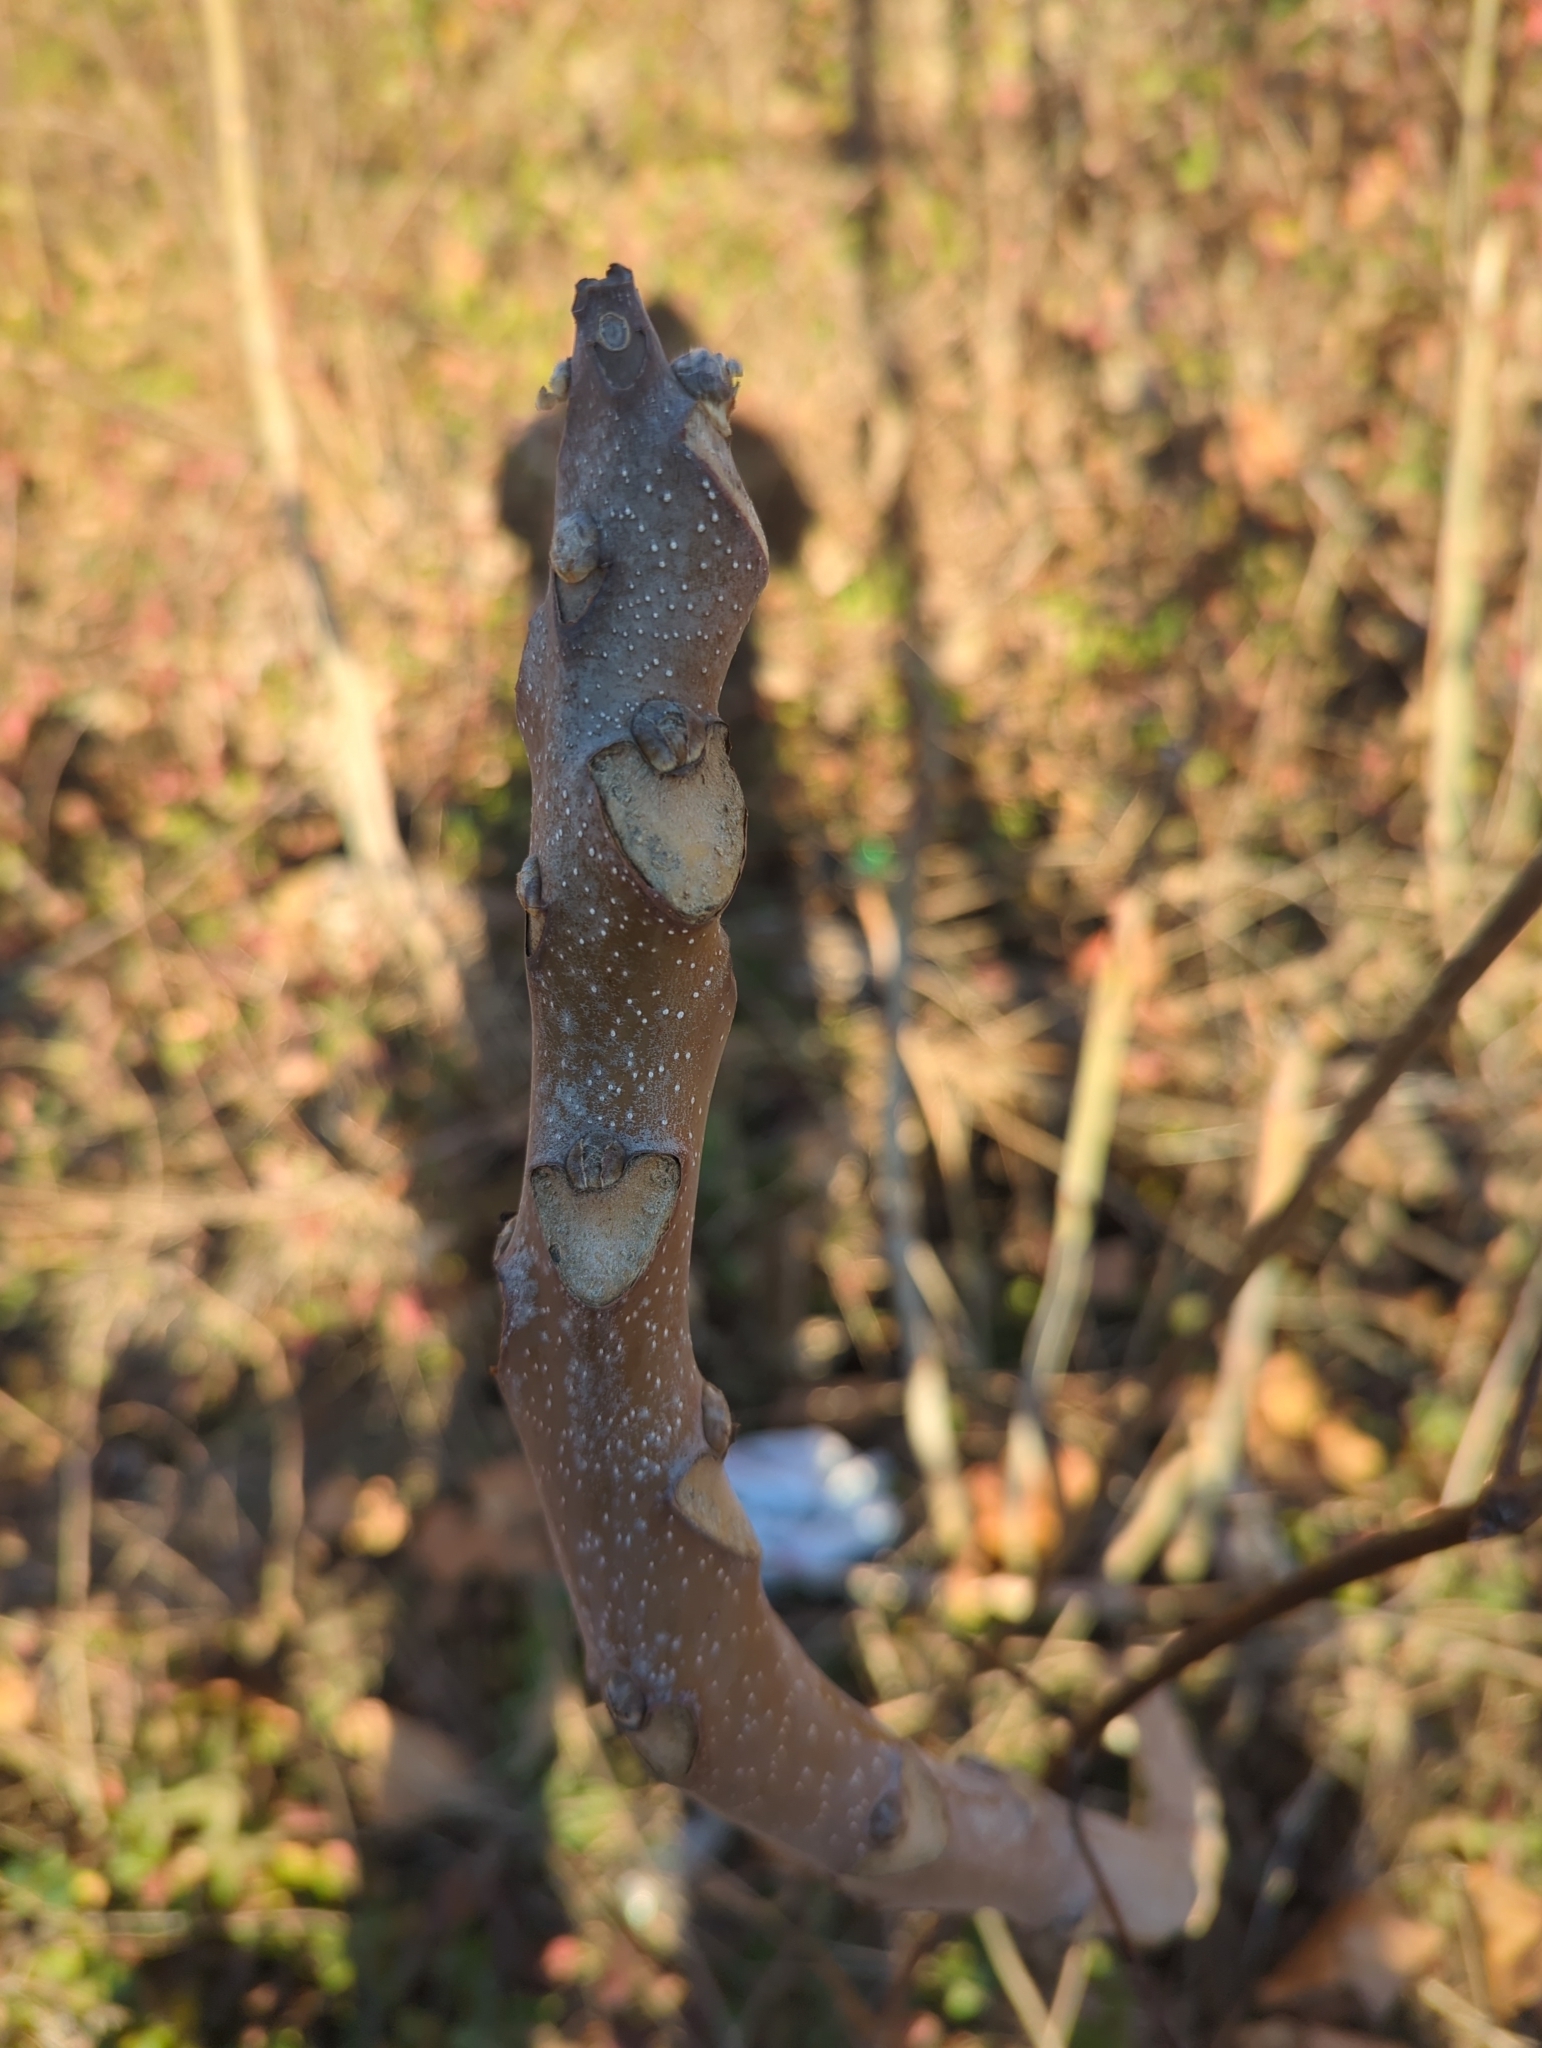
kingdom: Plantae
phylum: Tracheophyta
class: Magnoliopsida
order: Sapindales
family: Simaroubaceae
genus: Ailanthus
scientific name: Ailanthus altissima
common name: Tree-of-heaven
